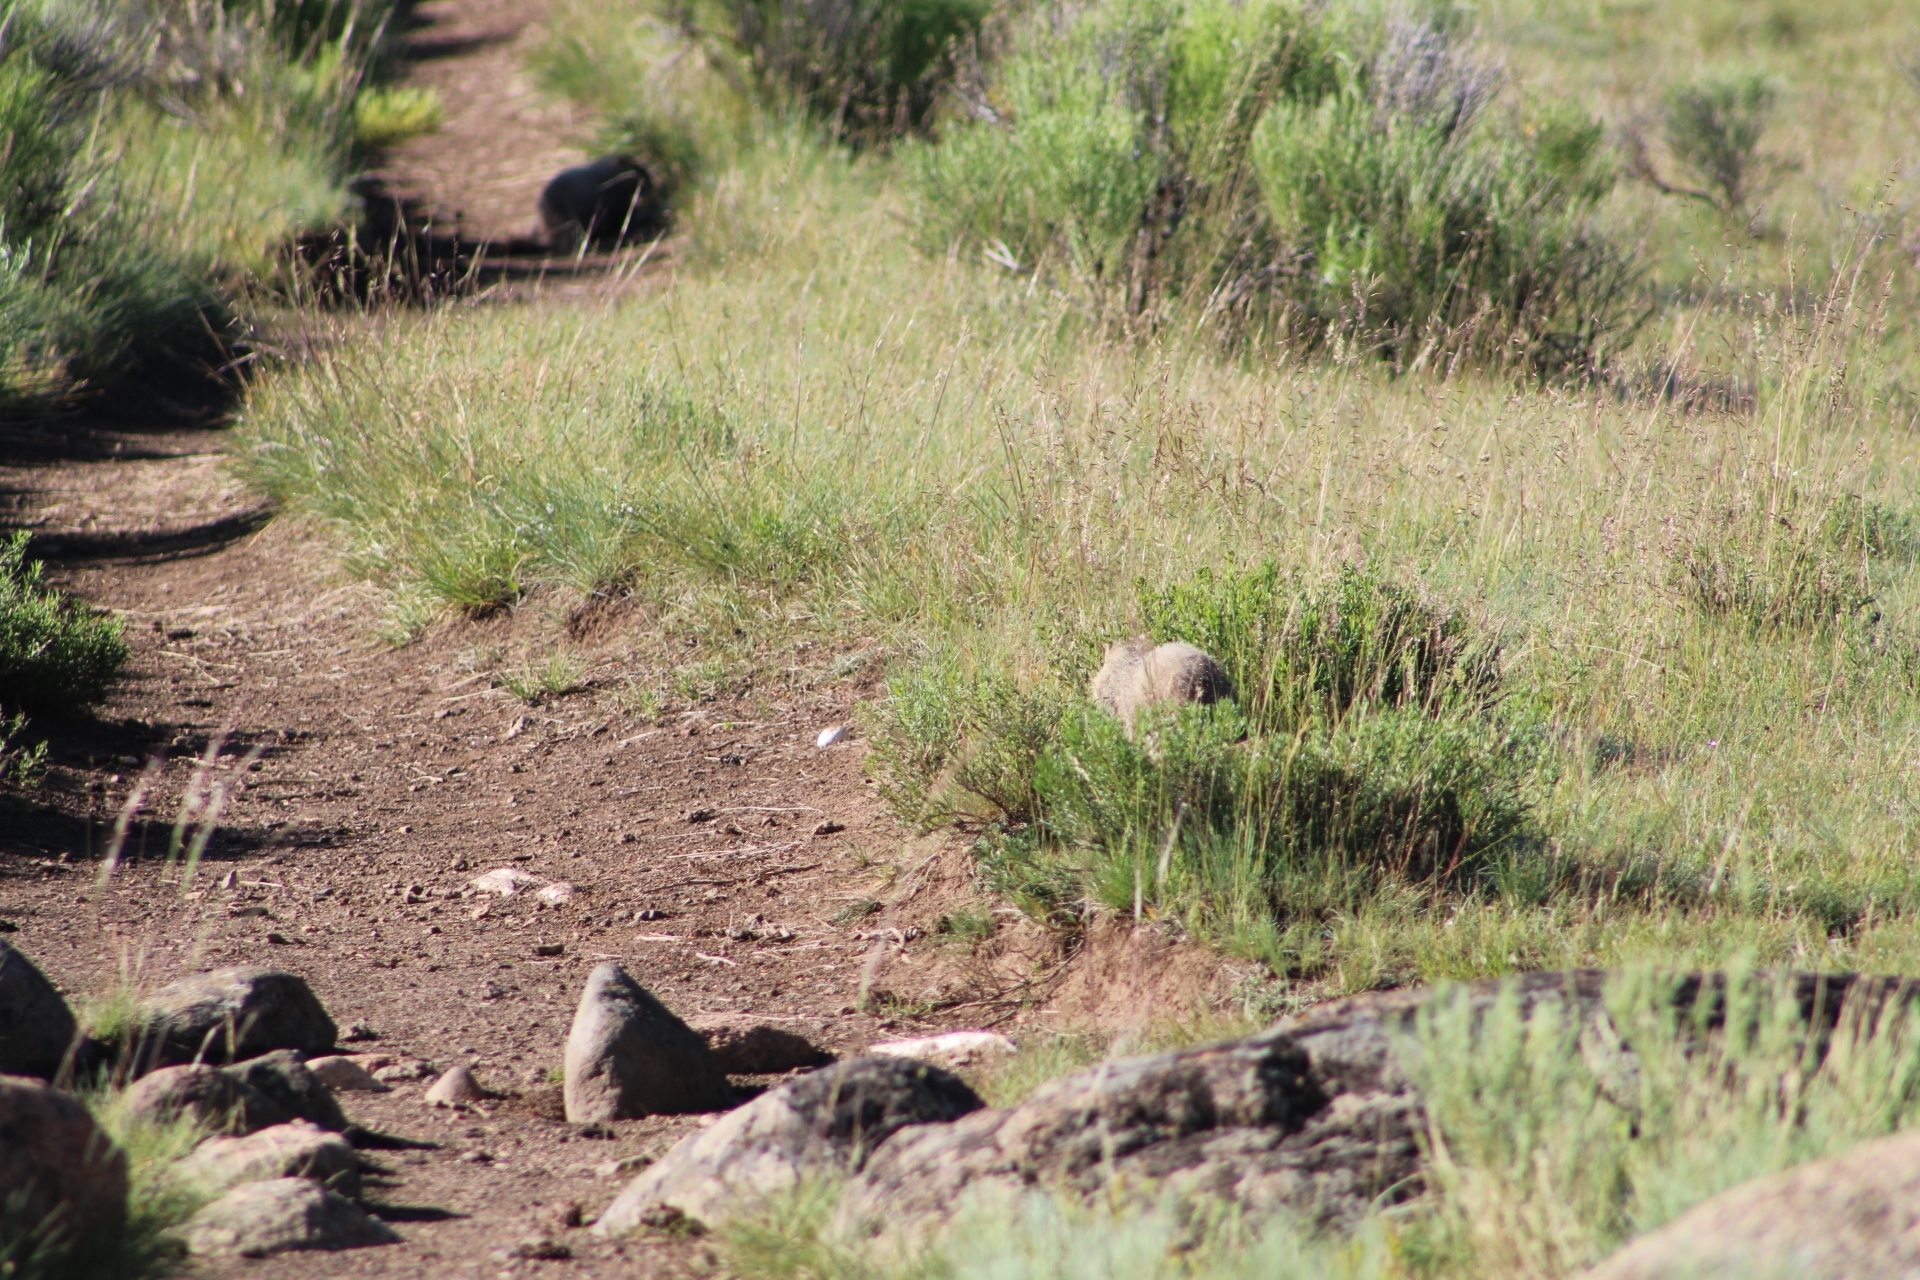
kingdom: Animalia
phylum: Chordata
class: Mammalia
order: Rodentia
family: Sciuridae
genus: Marmota
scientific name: Marmota flaviventris
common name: Yellow-bellied marmot
